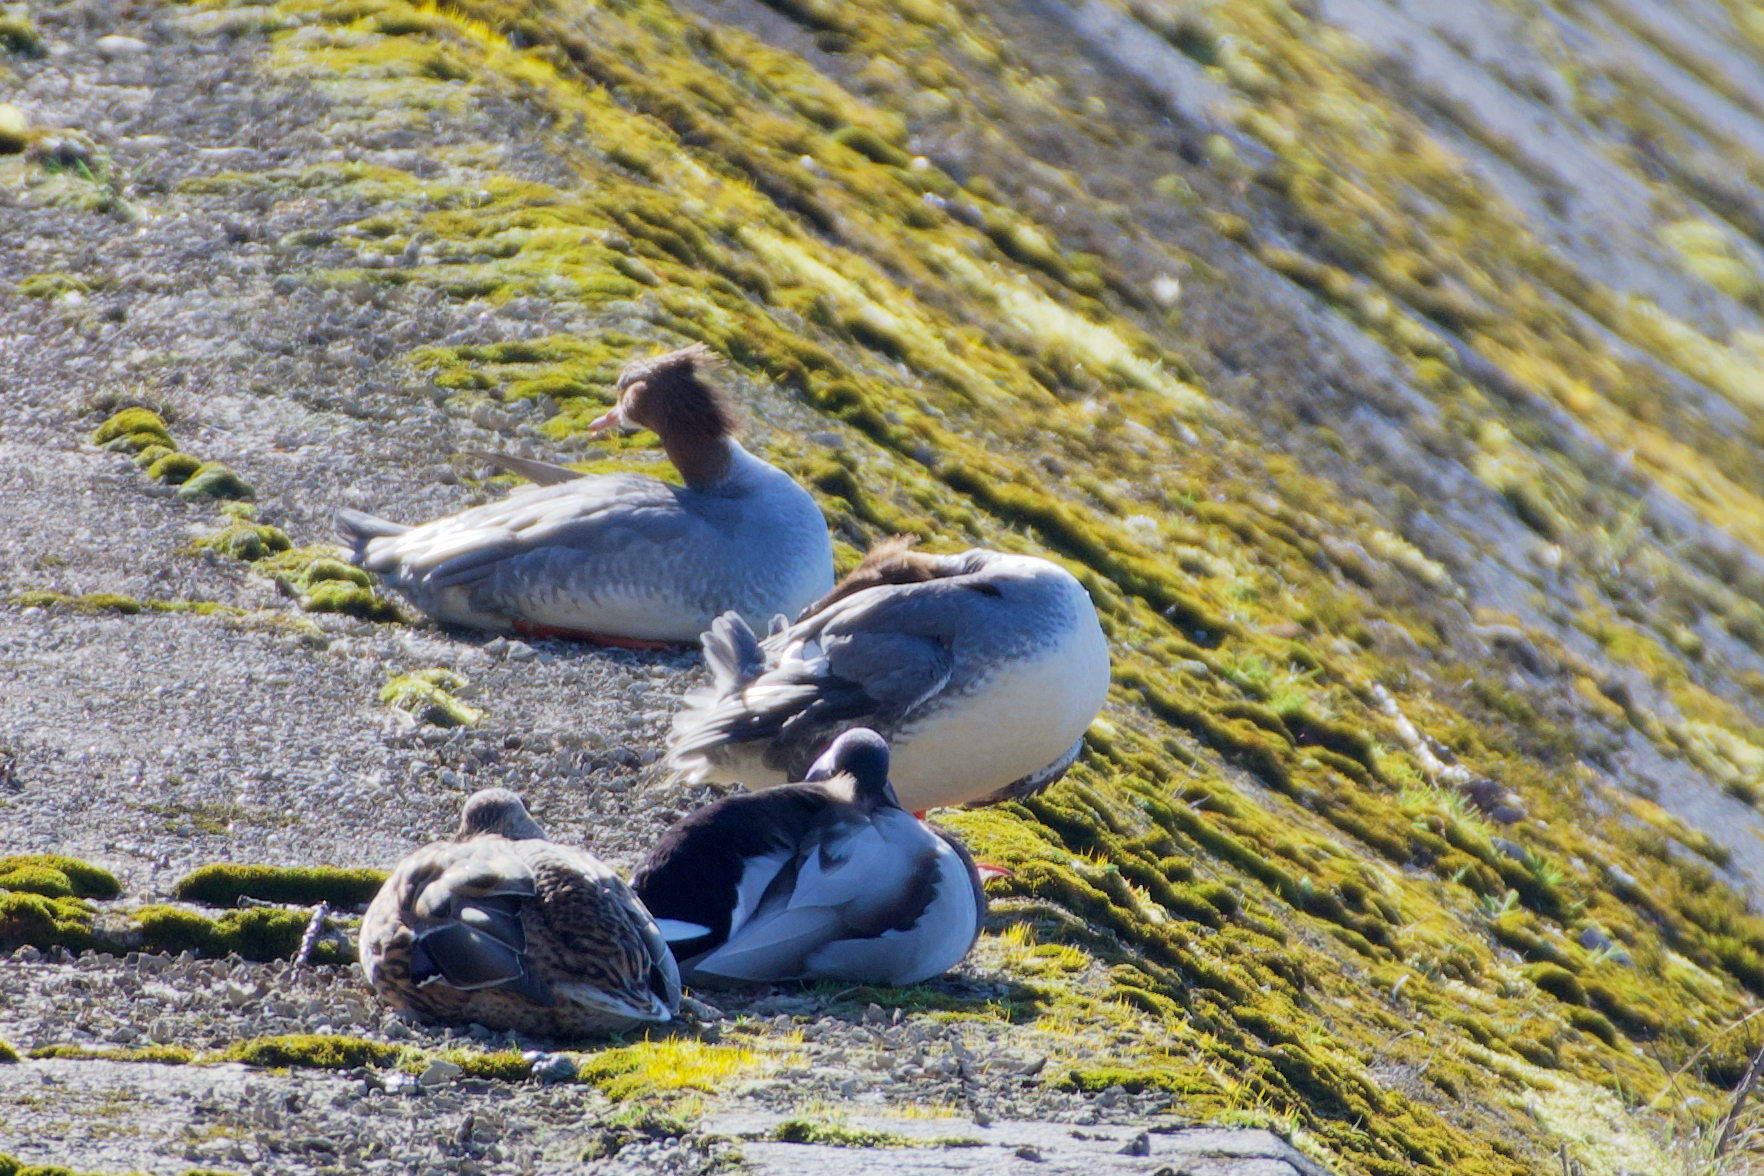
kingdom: Animalia
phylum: Chordata
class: Aves
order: Anseriformes
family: Anatidae
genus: Mergus
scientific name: Mergus merganser
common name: Common merganser
